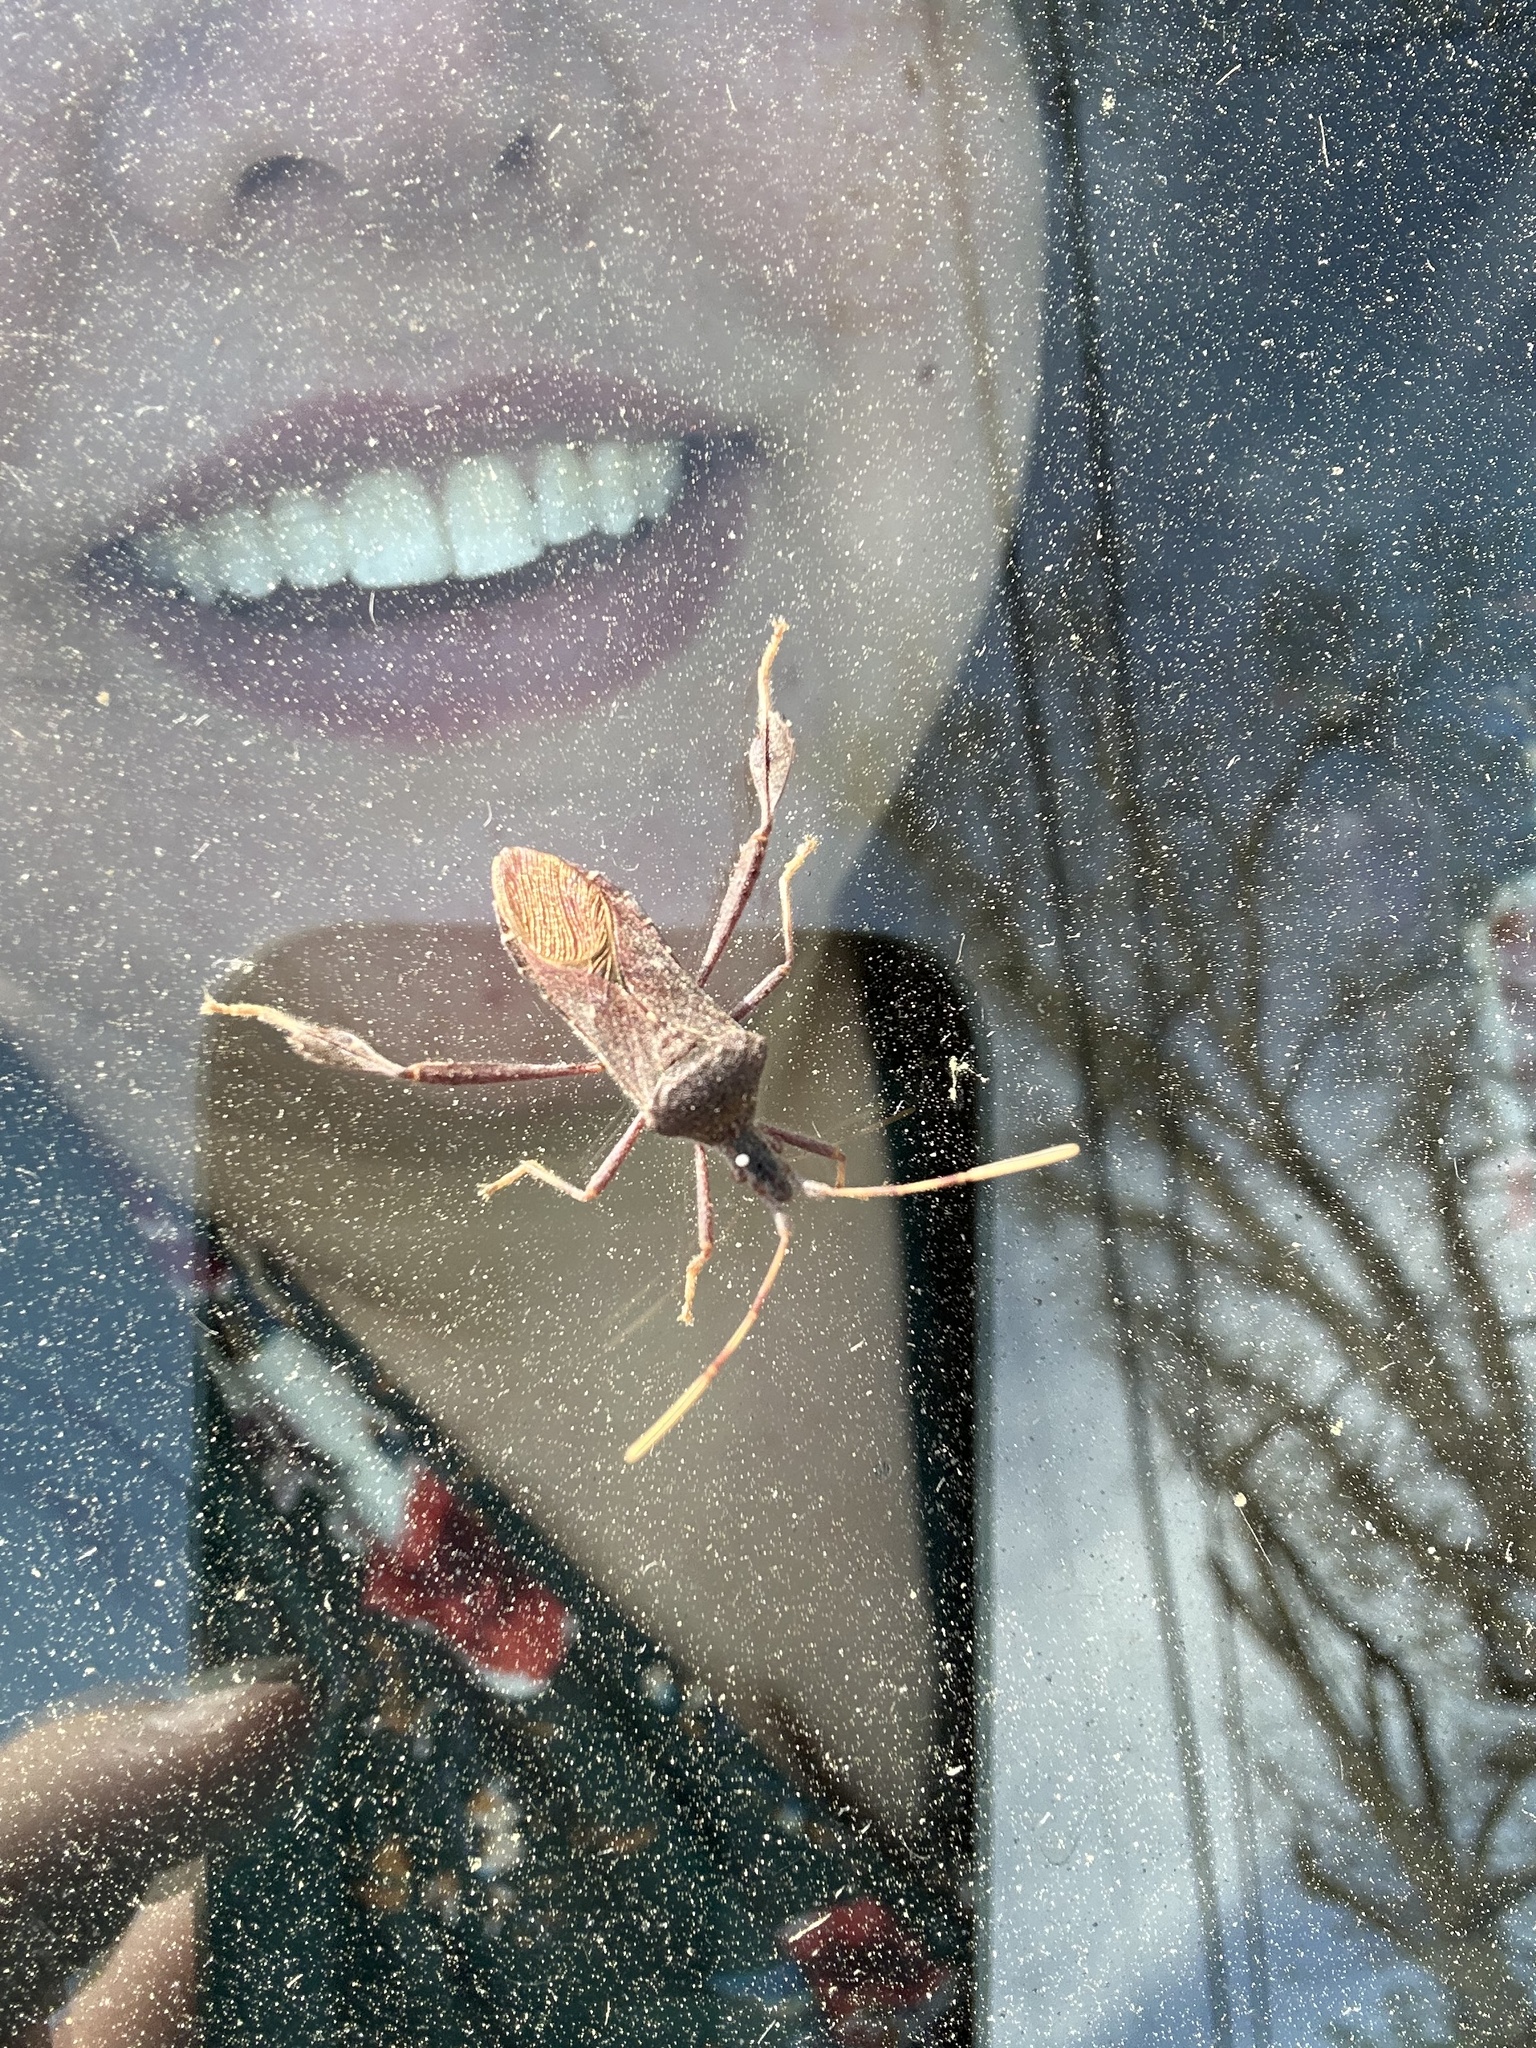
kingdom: Animalia
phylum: Arthropoda
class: Insecta
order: Hemiptera
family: Coreidae
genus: Leptoglossus
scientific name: Leptoglossus oppositus
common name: Northern leaf-footed bug
